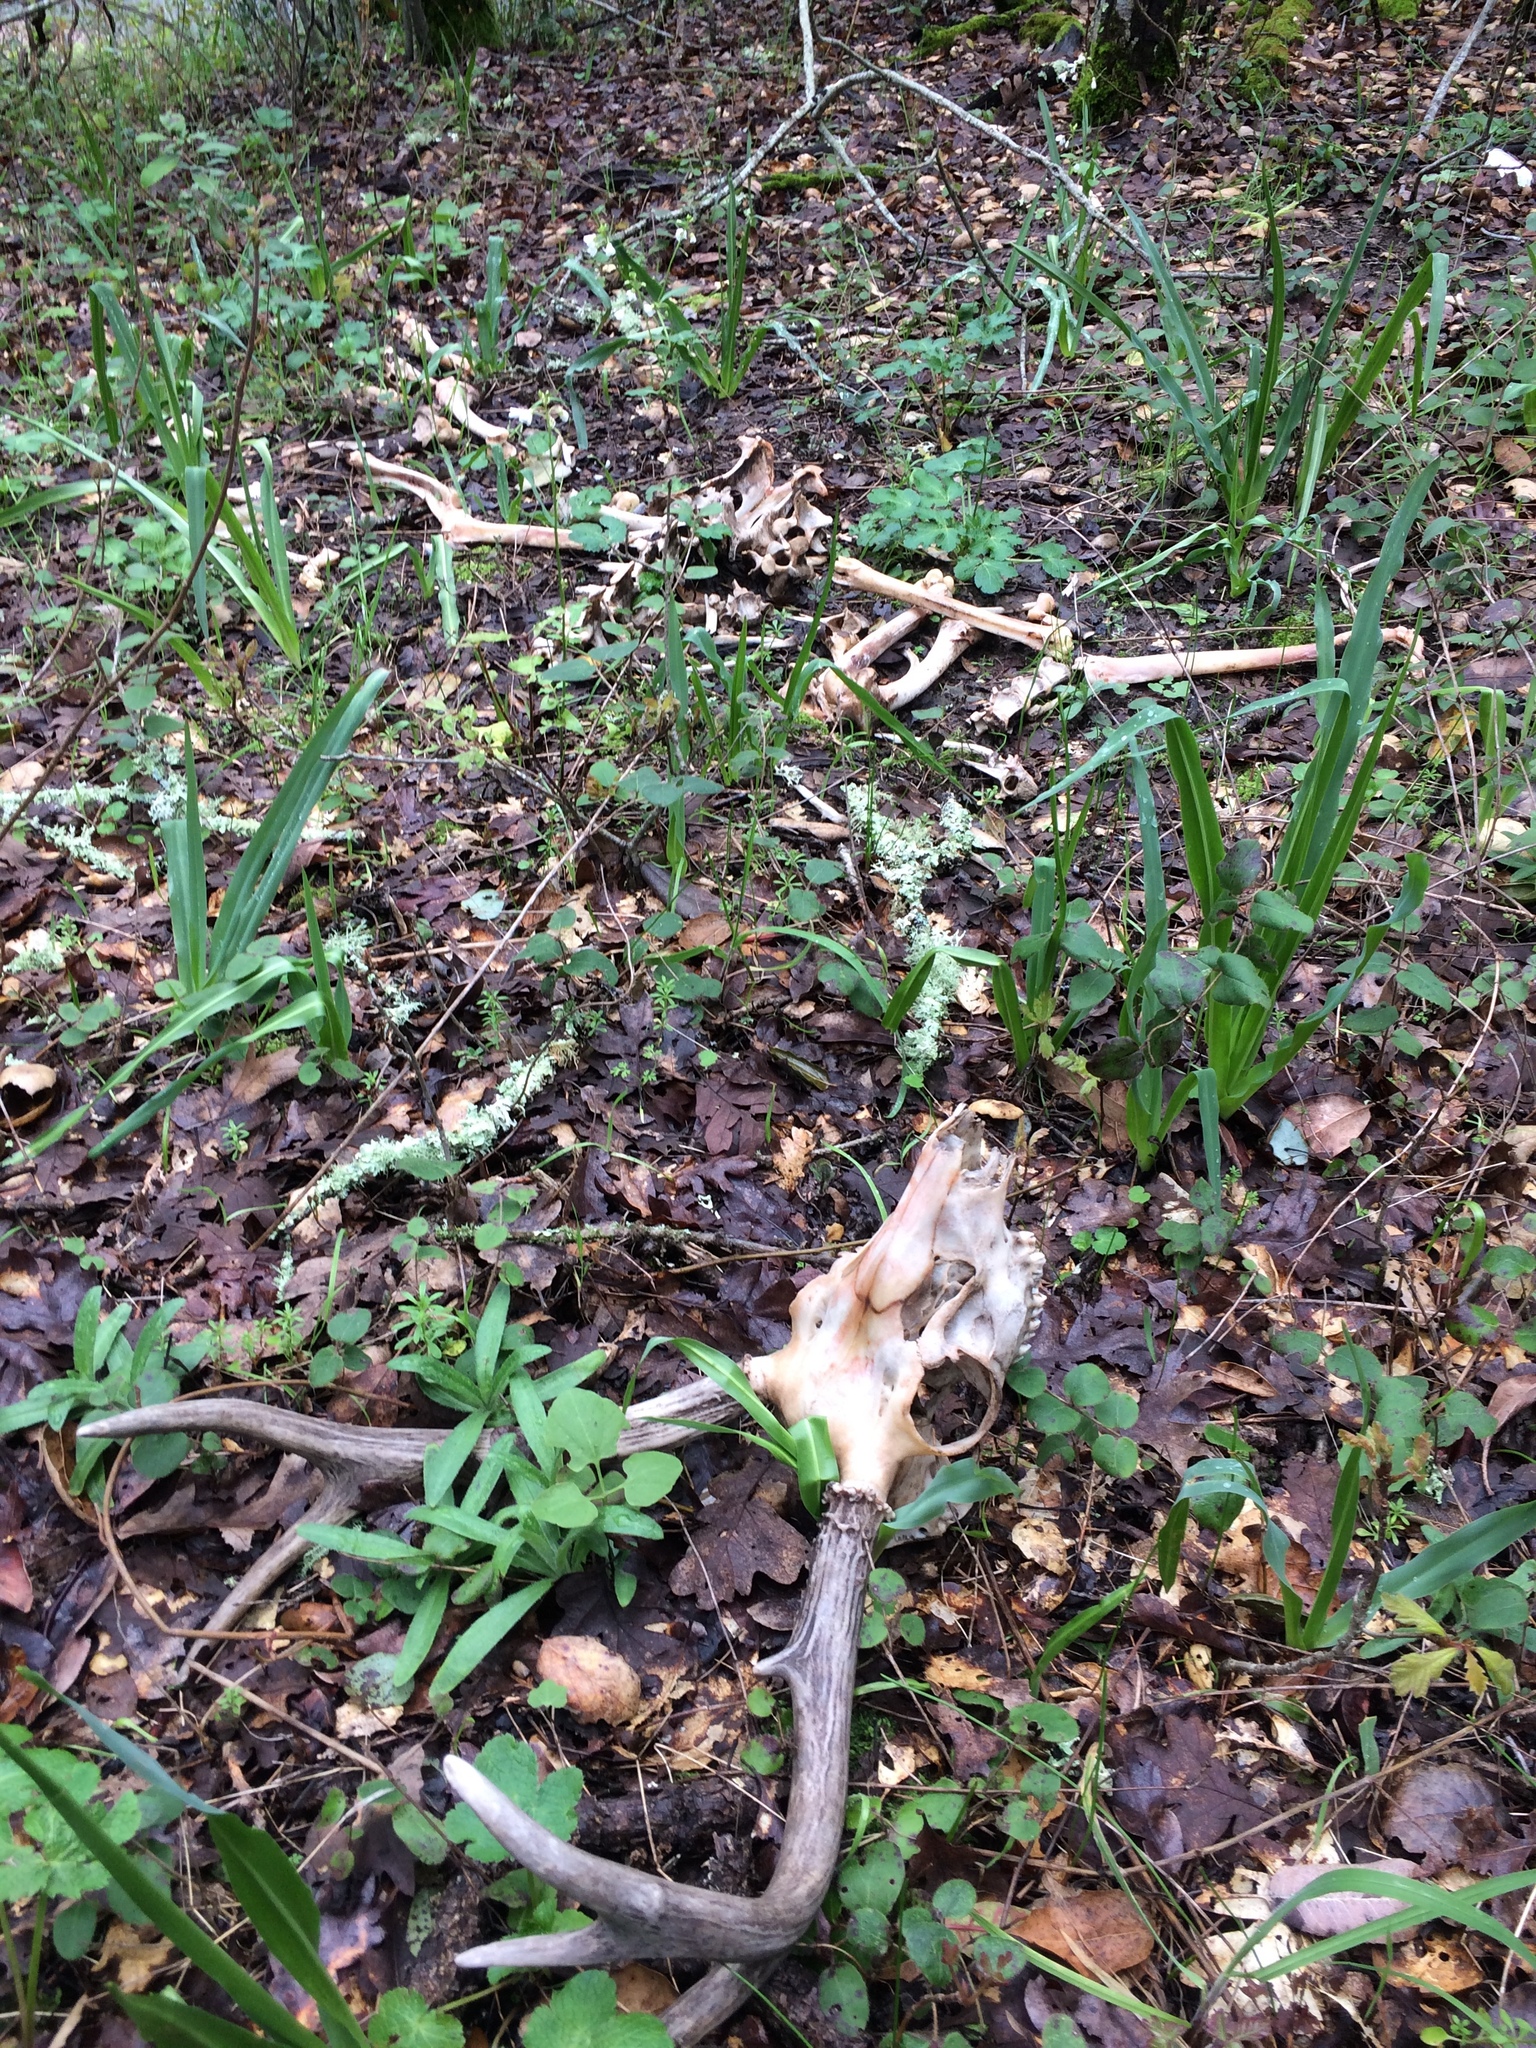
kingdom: Animalia
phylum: Chordata
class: Mammalia
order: Artiodactyla
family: Cervidae
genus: Odocoileus
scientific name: Odocoileus hemionus
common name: Mule deer
